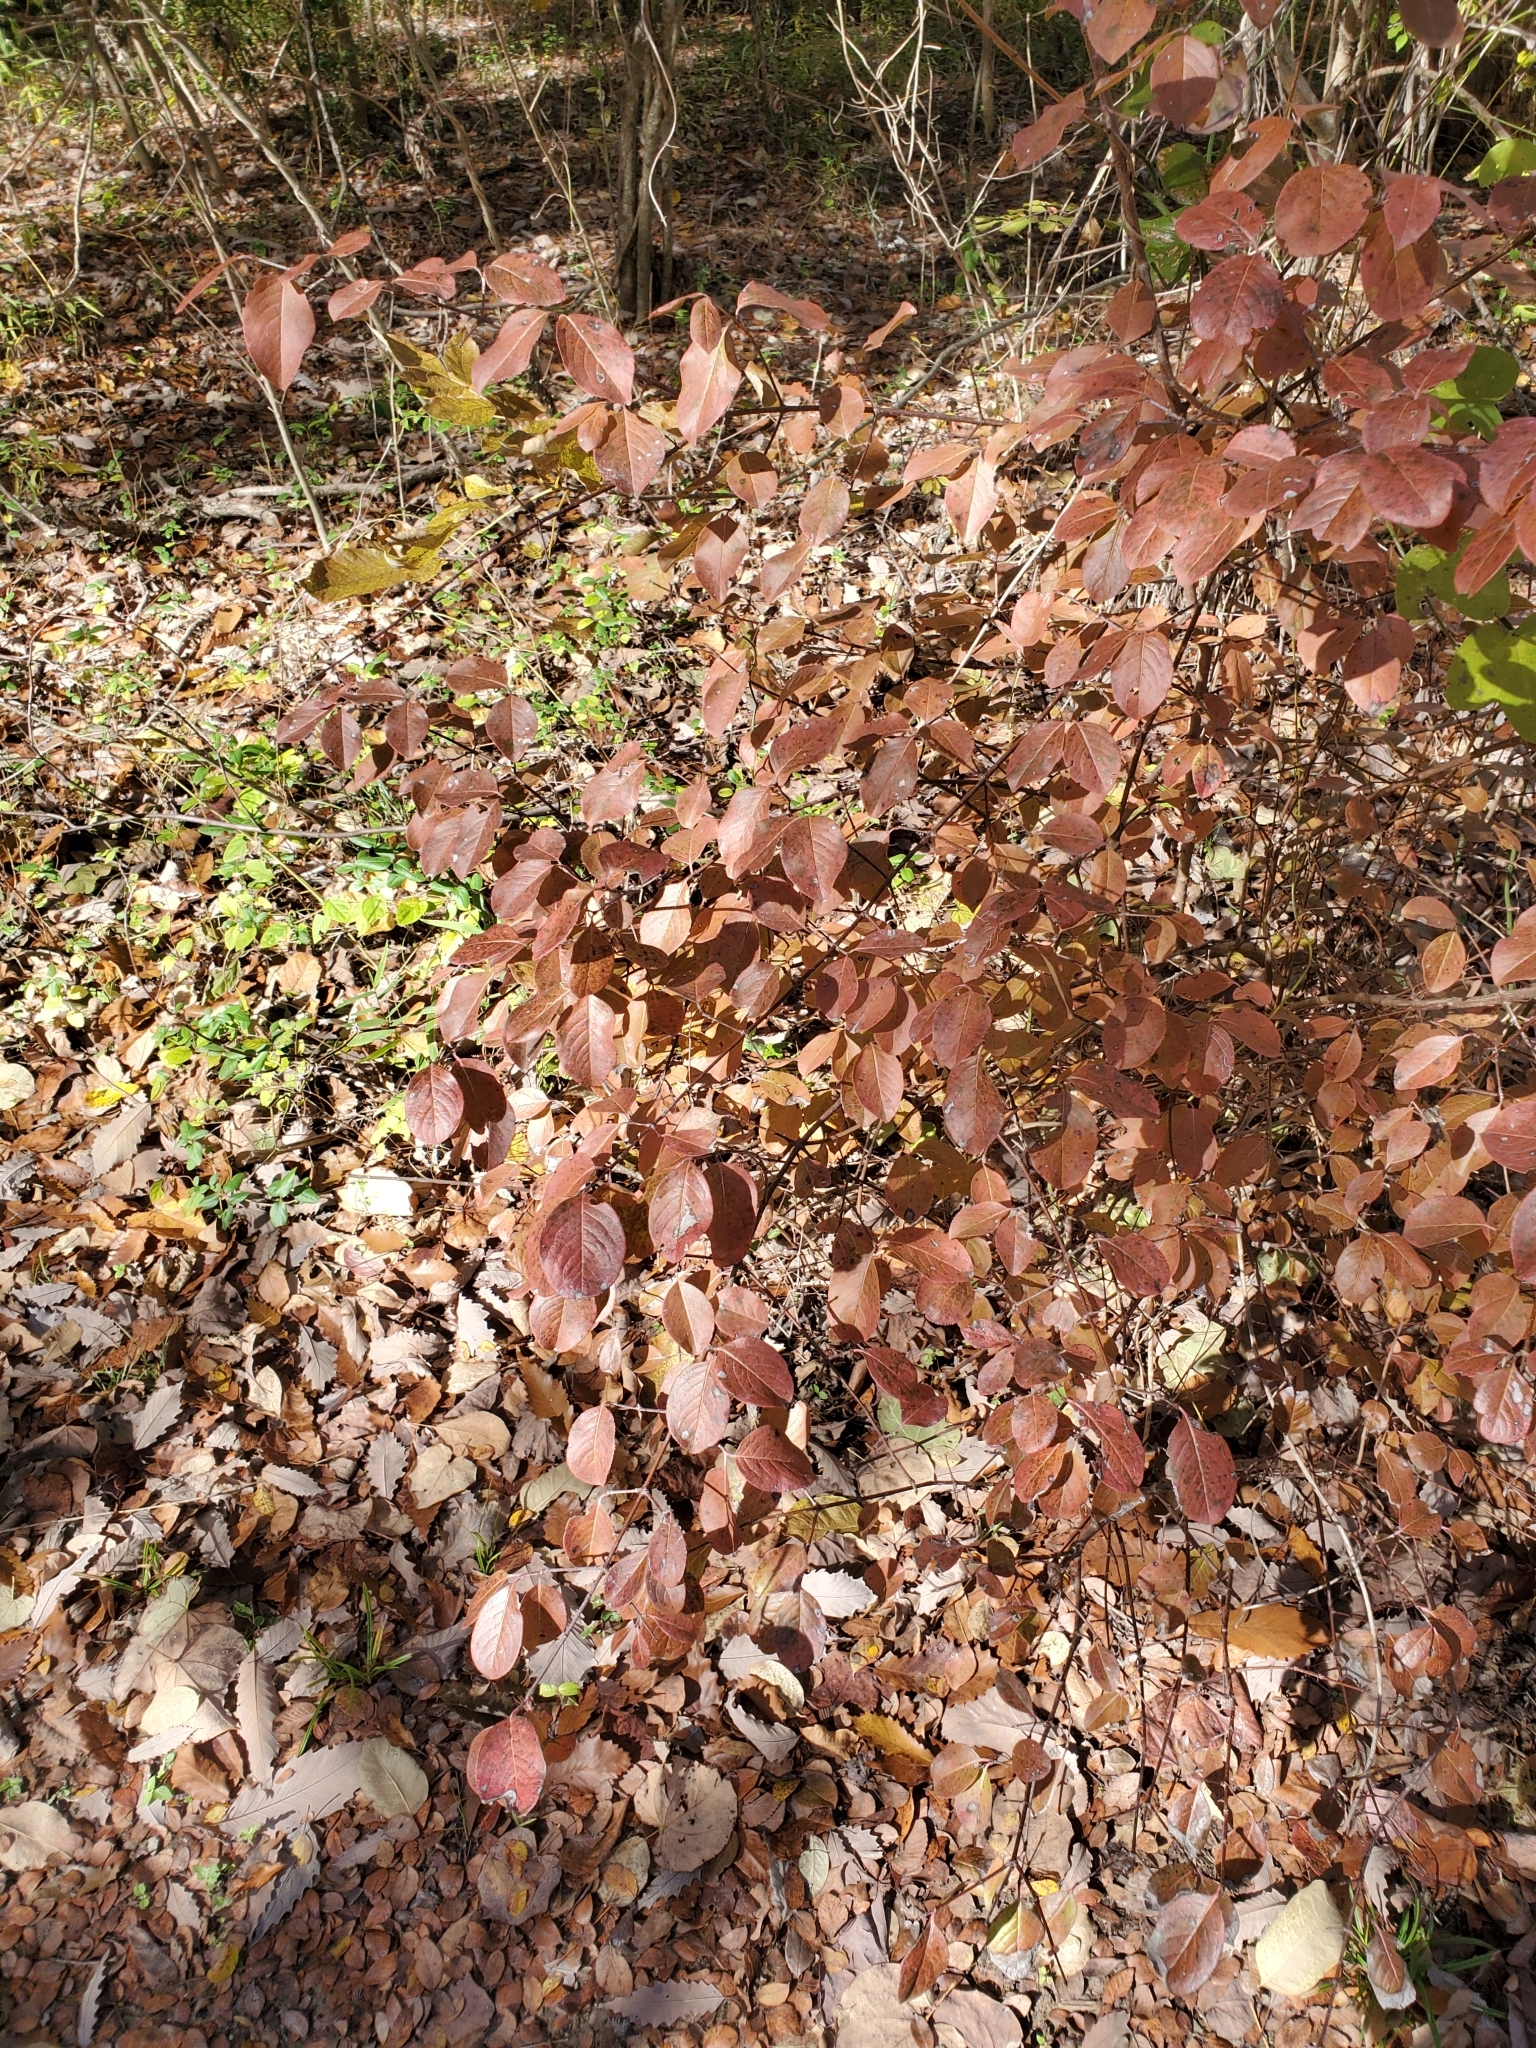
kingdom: Plantae
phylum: Tracheophyta
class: Magnoliopsida
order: Dipsacales
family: Viburnaceae
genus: Viburnum
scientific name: Viburnum rufidulum
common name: Blue haw
